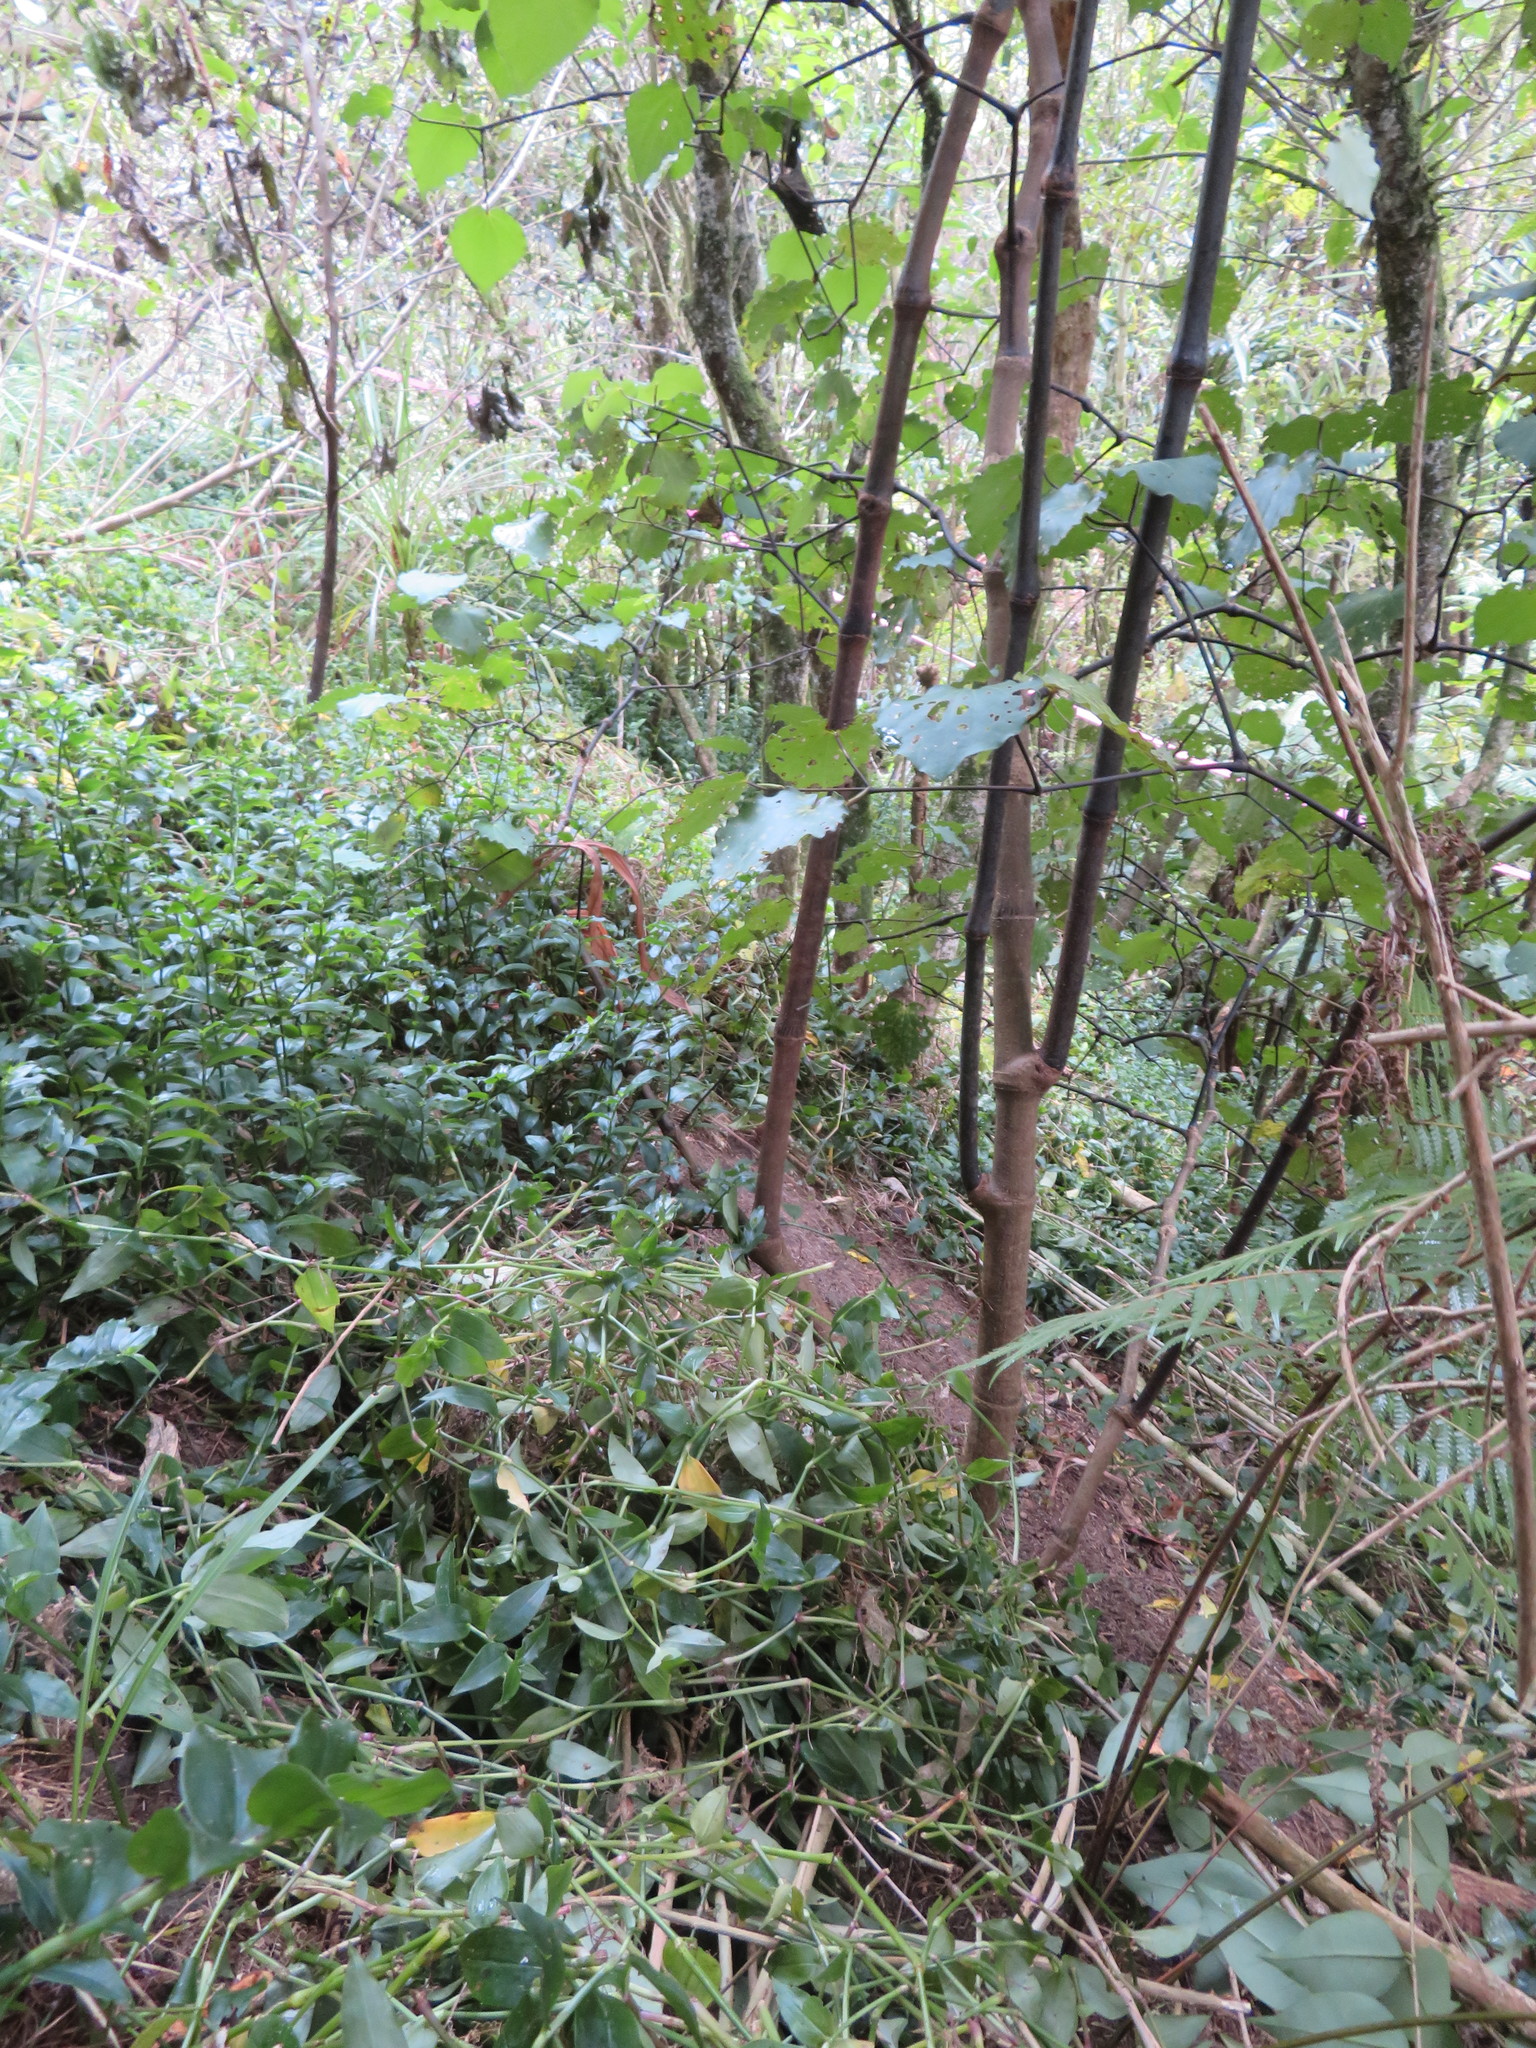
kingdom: Plantae
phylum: Tracheophyta
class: Liliopsida
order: Commelinales
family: Commelinaceae
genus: Tradescantia
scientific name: Tradescantia fluminensis
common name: Wandering-jew
